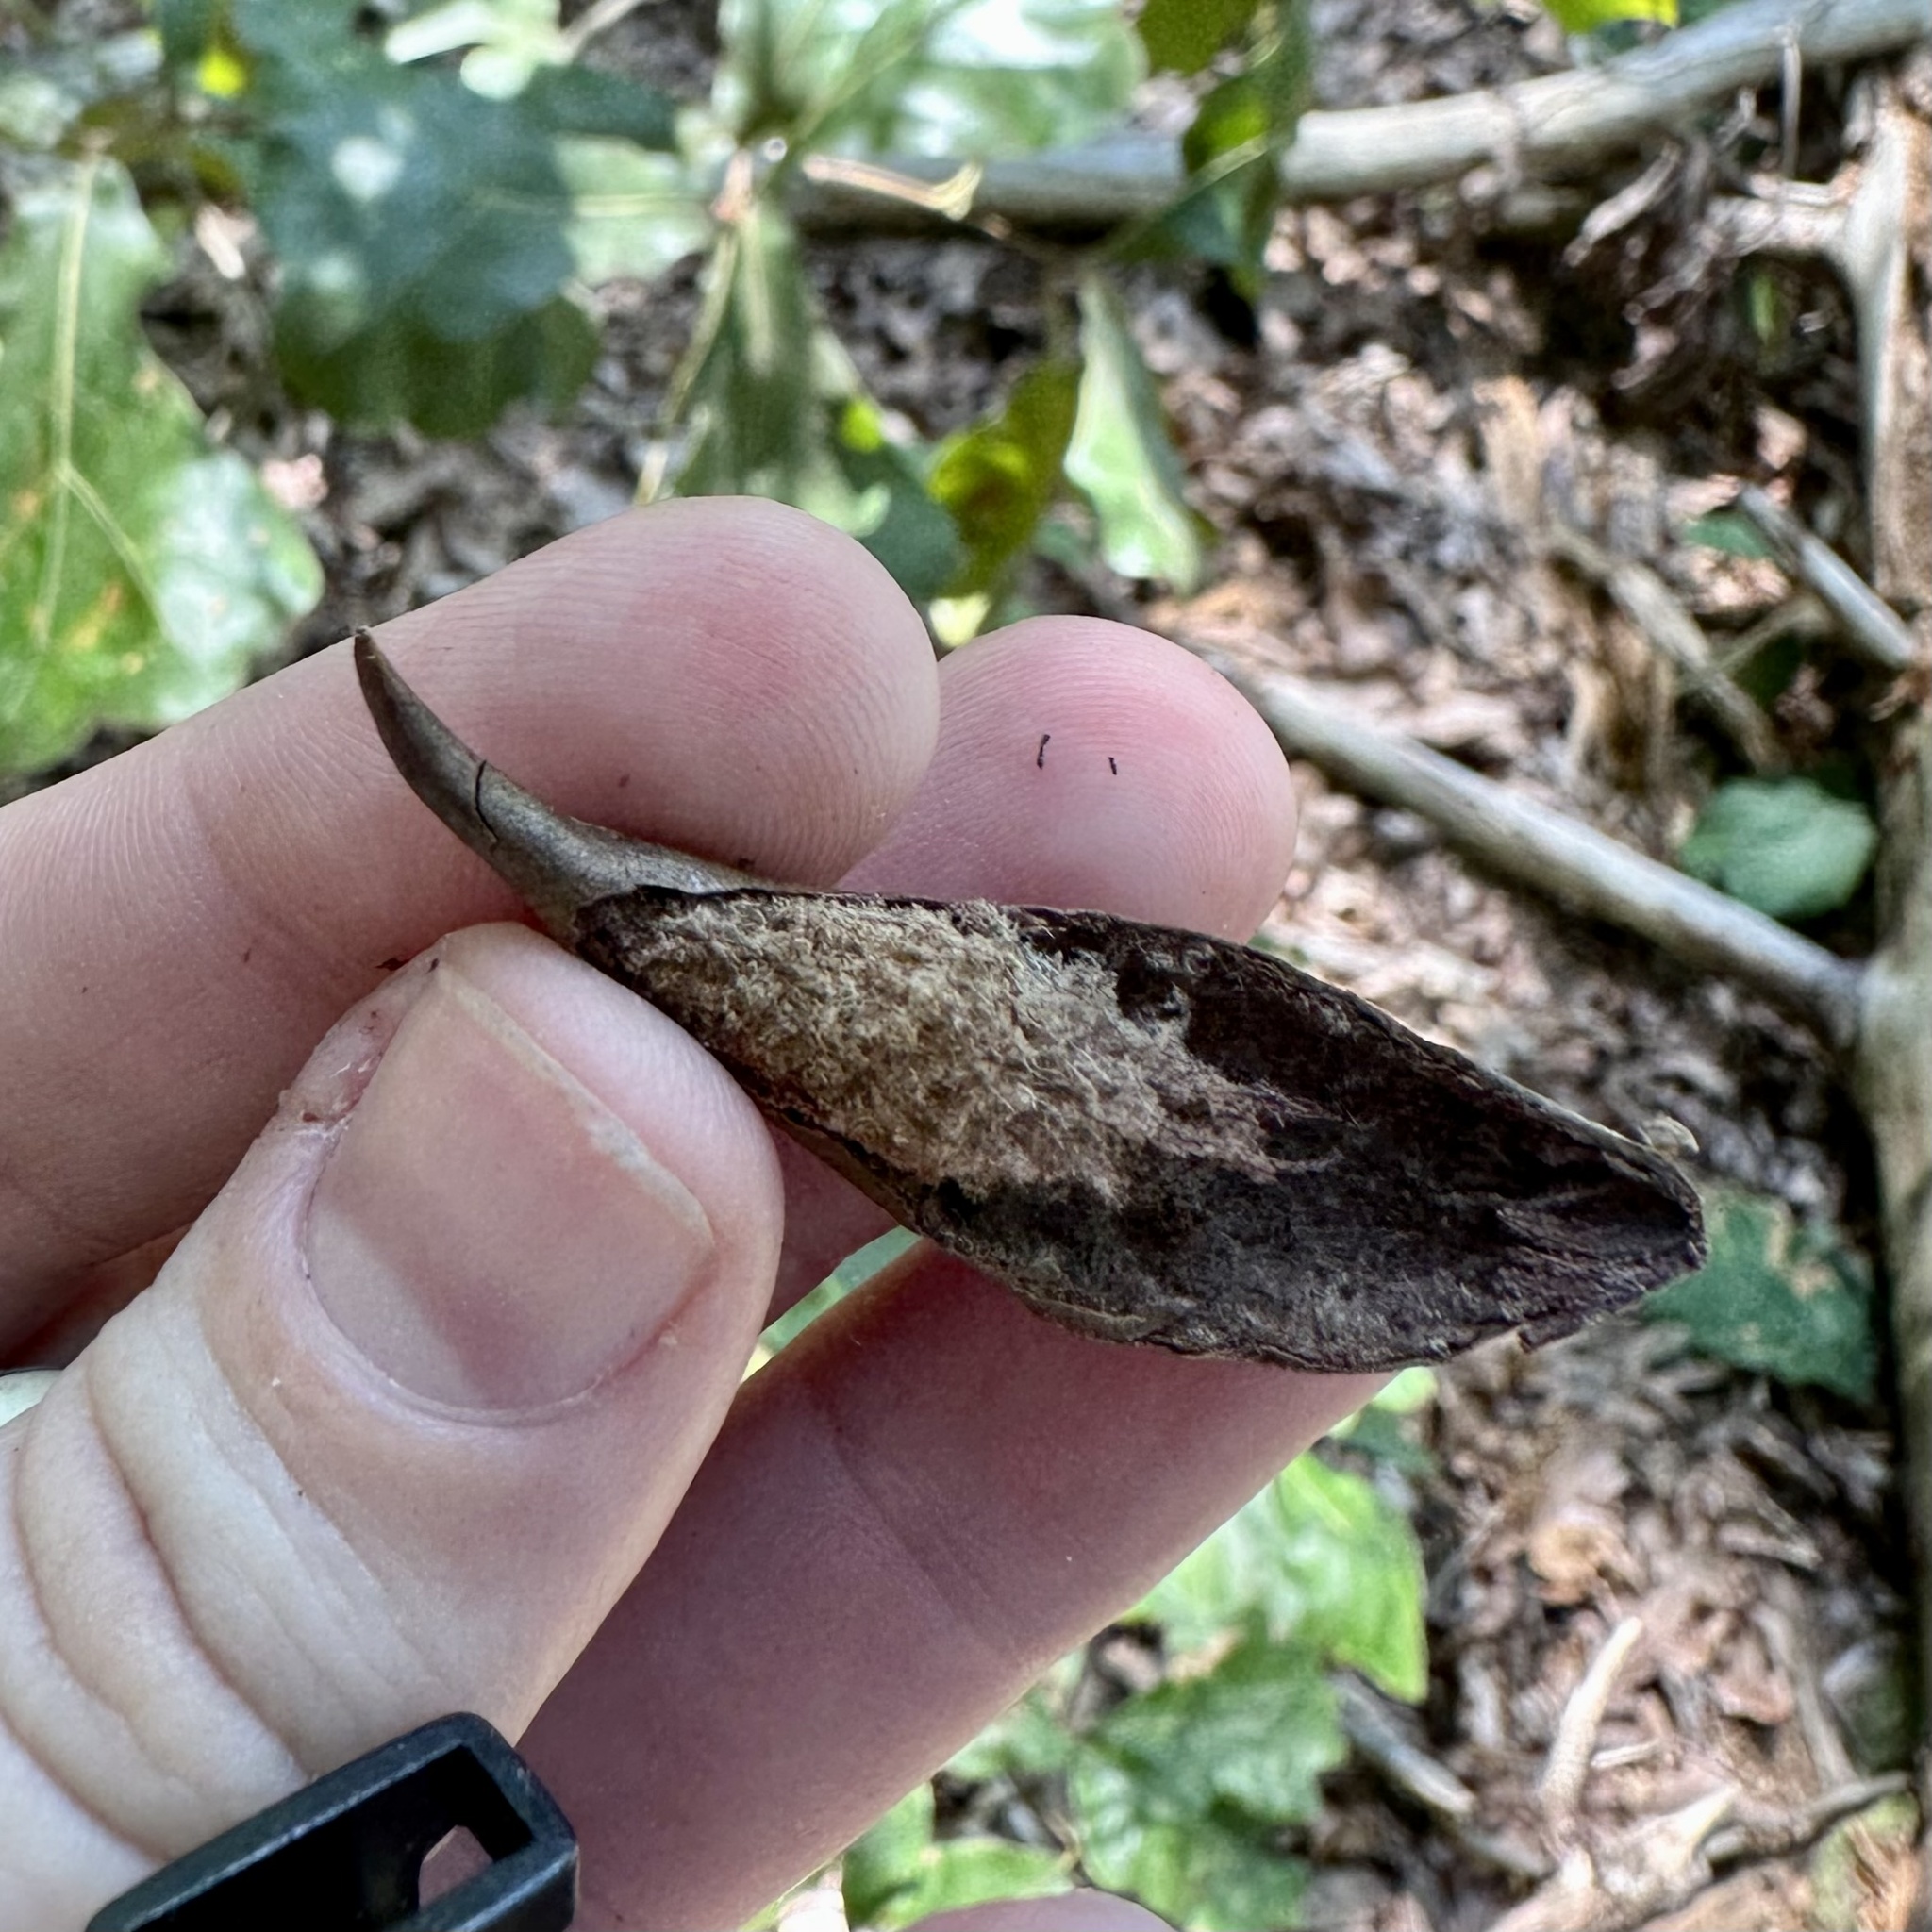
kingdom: Animalia
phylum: Arthropoda
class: Insecta
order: Hymenoptera
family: Cynipidae
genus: Amphibolips
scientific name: Amphibolips
